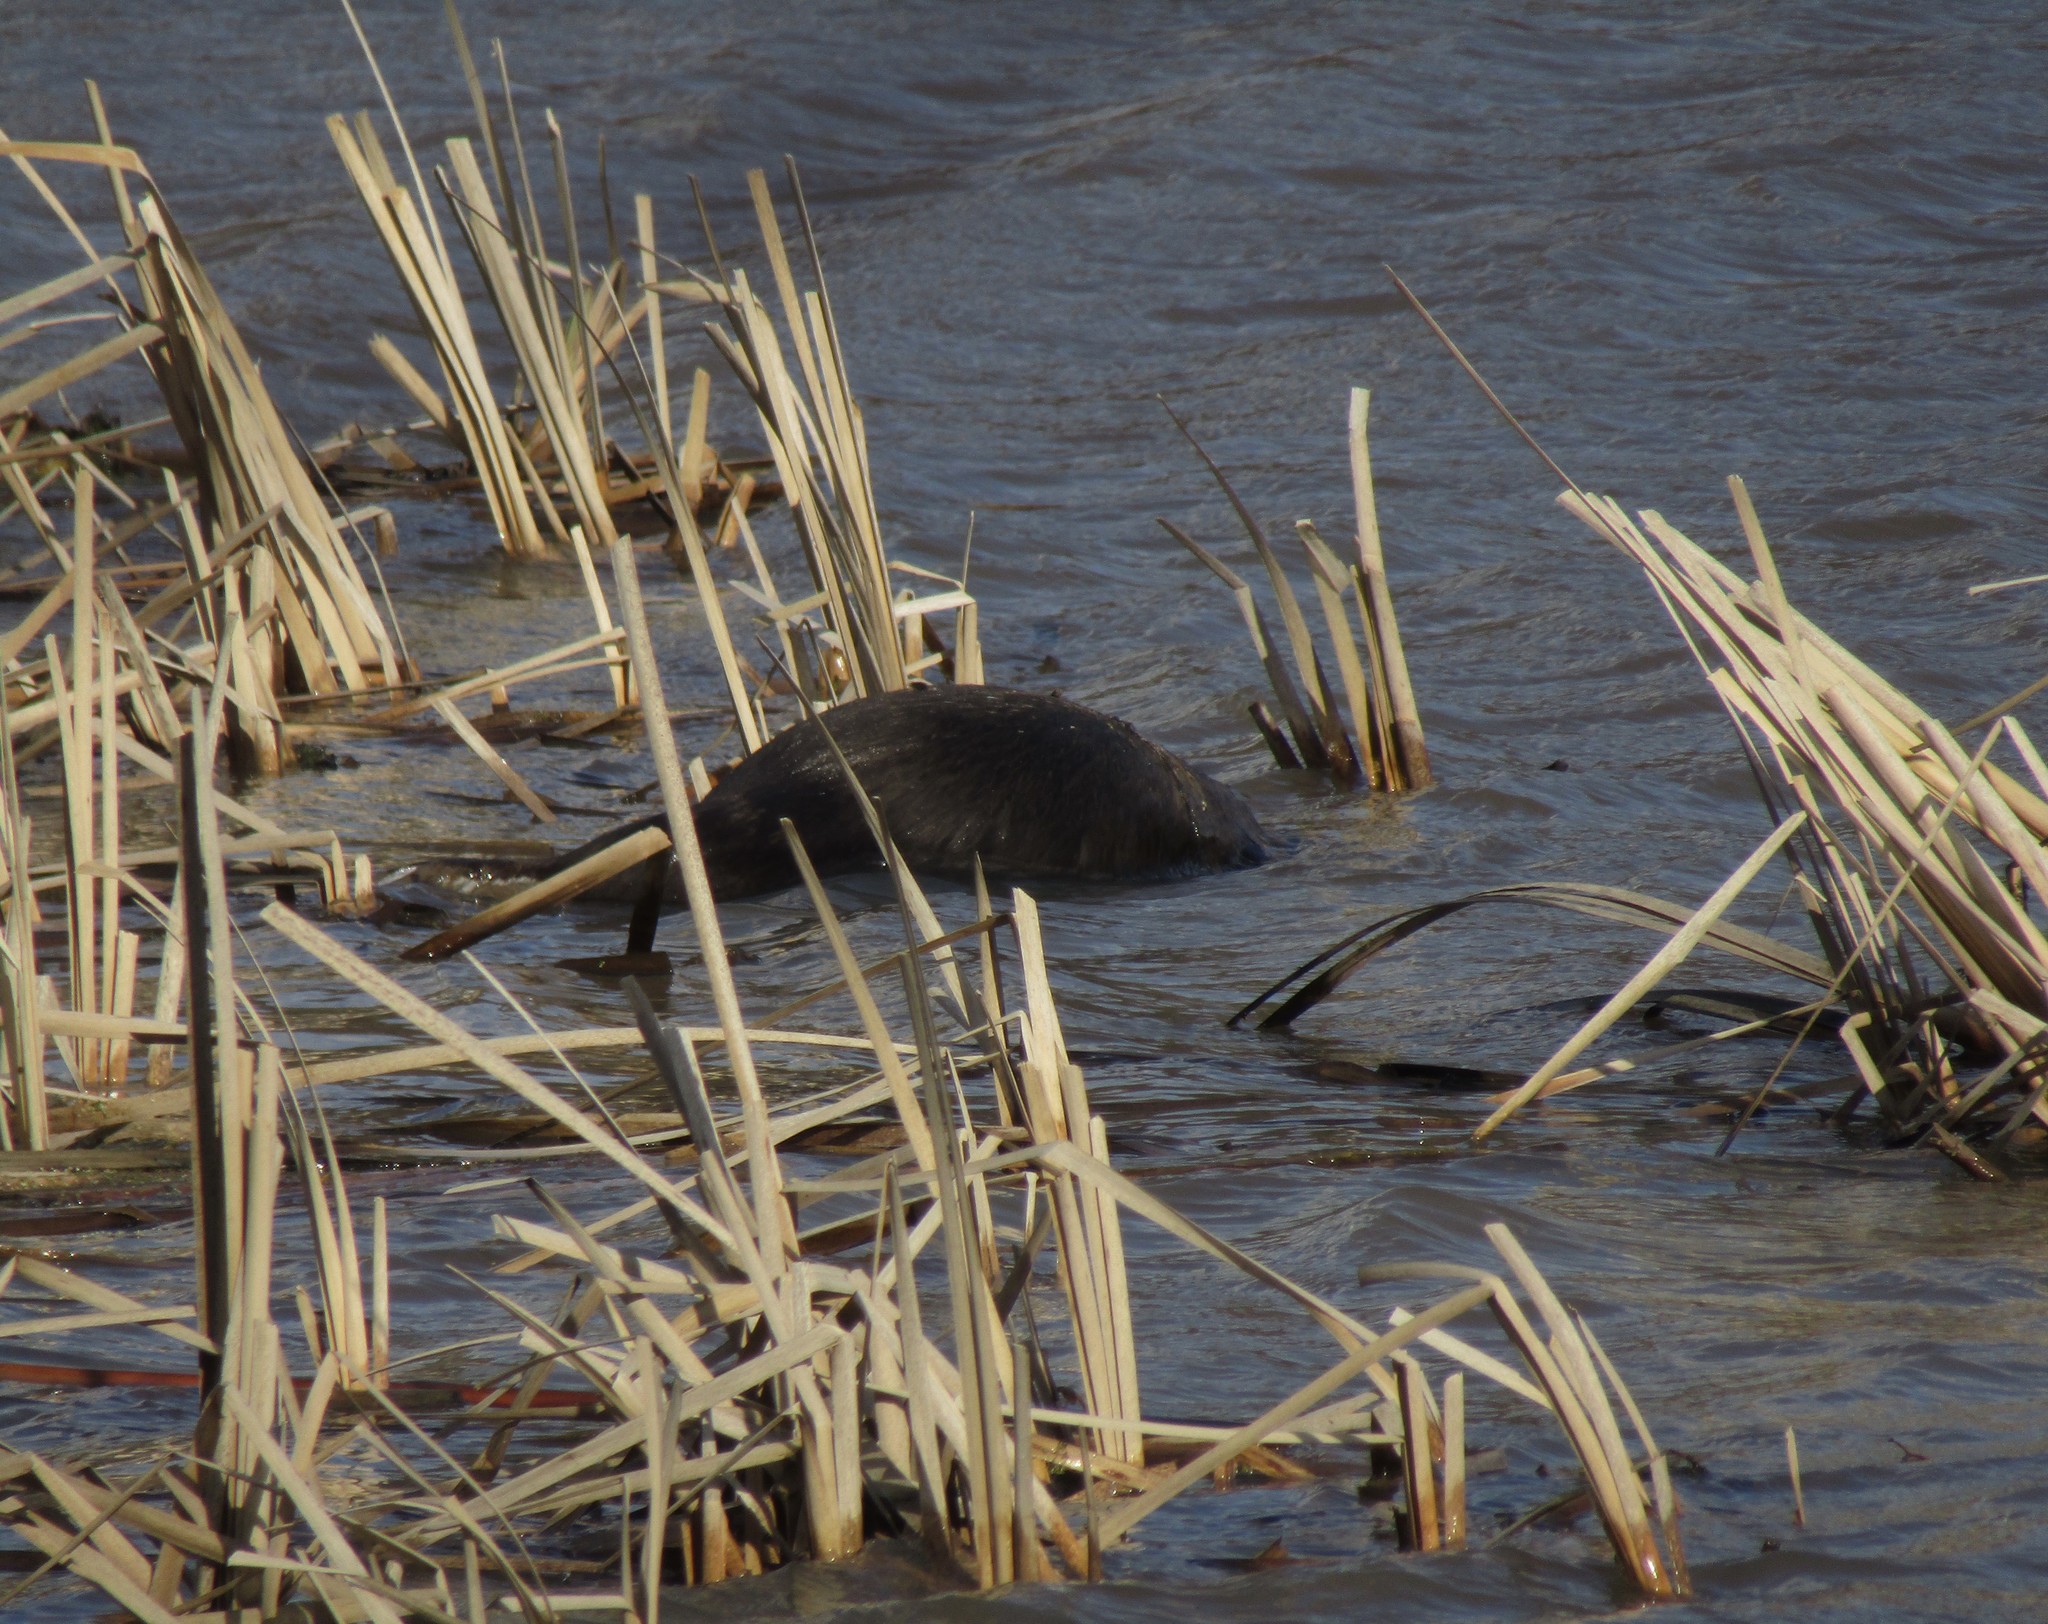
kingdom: Animalia
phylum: Chordata
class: Mammalia
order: Rodentia
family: Castoridae
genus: Castor
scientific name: Castor fiber
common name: Eurasian beaver
